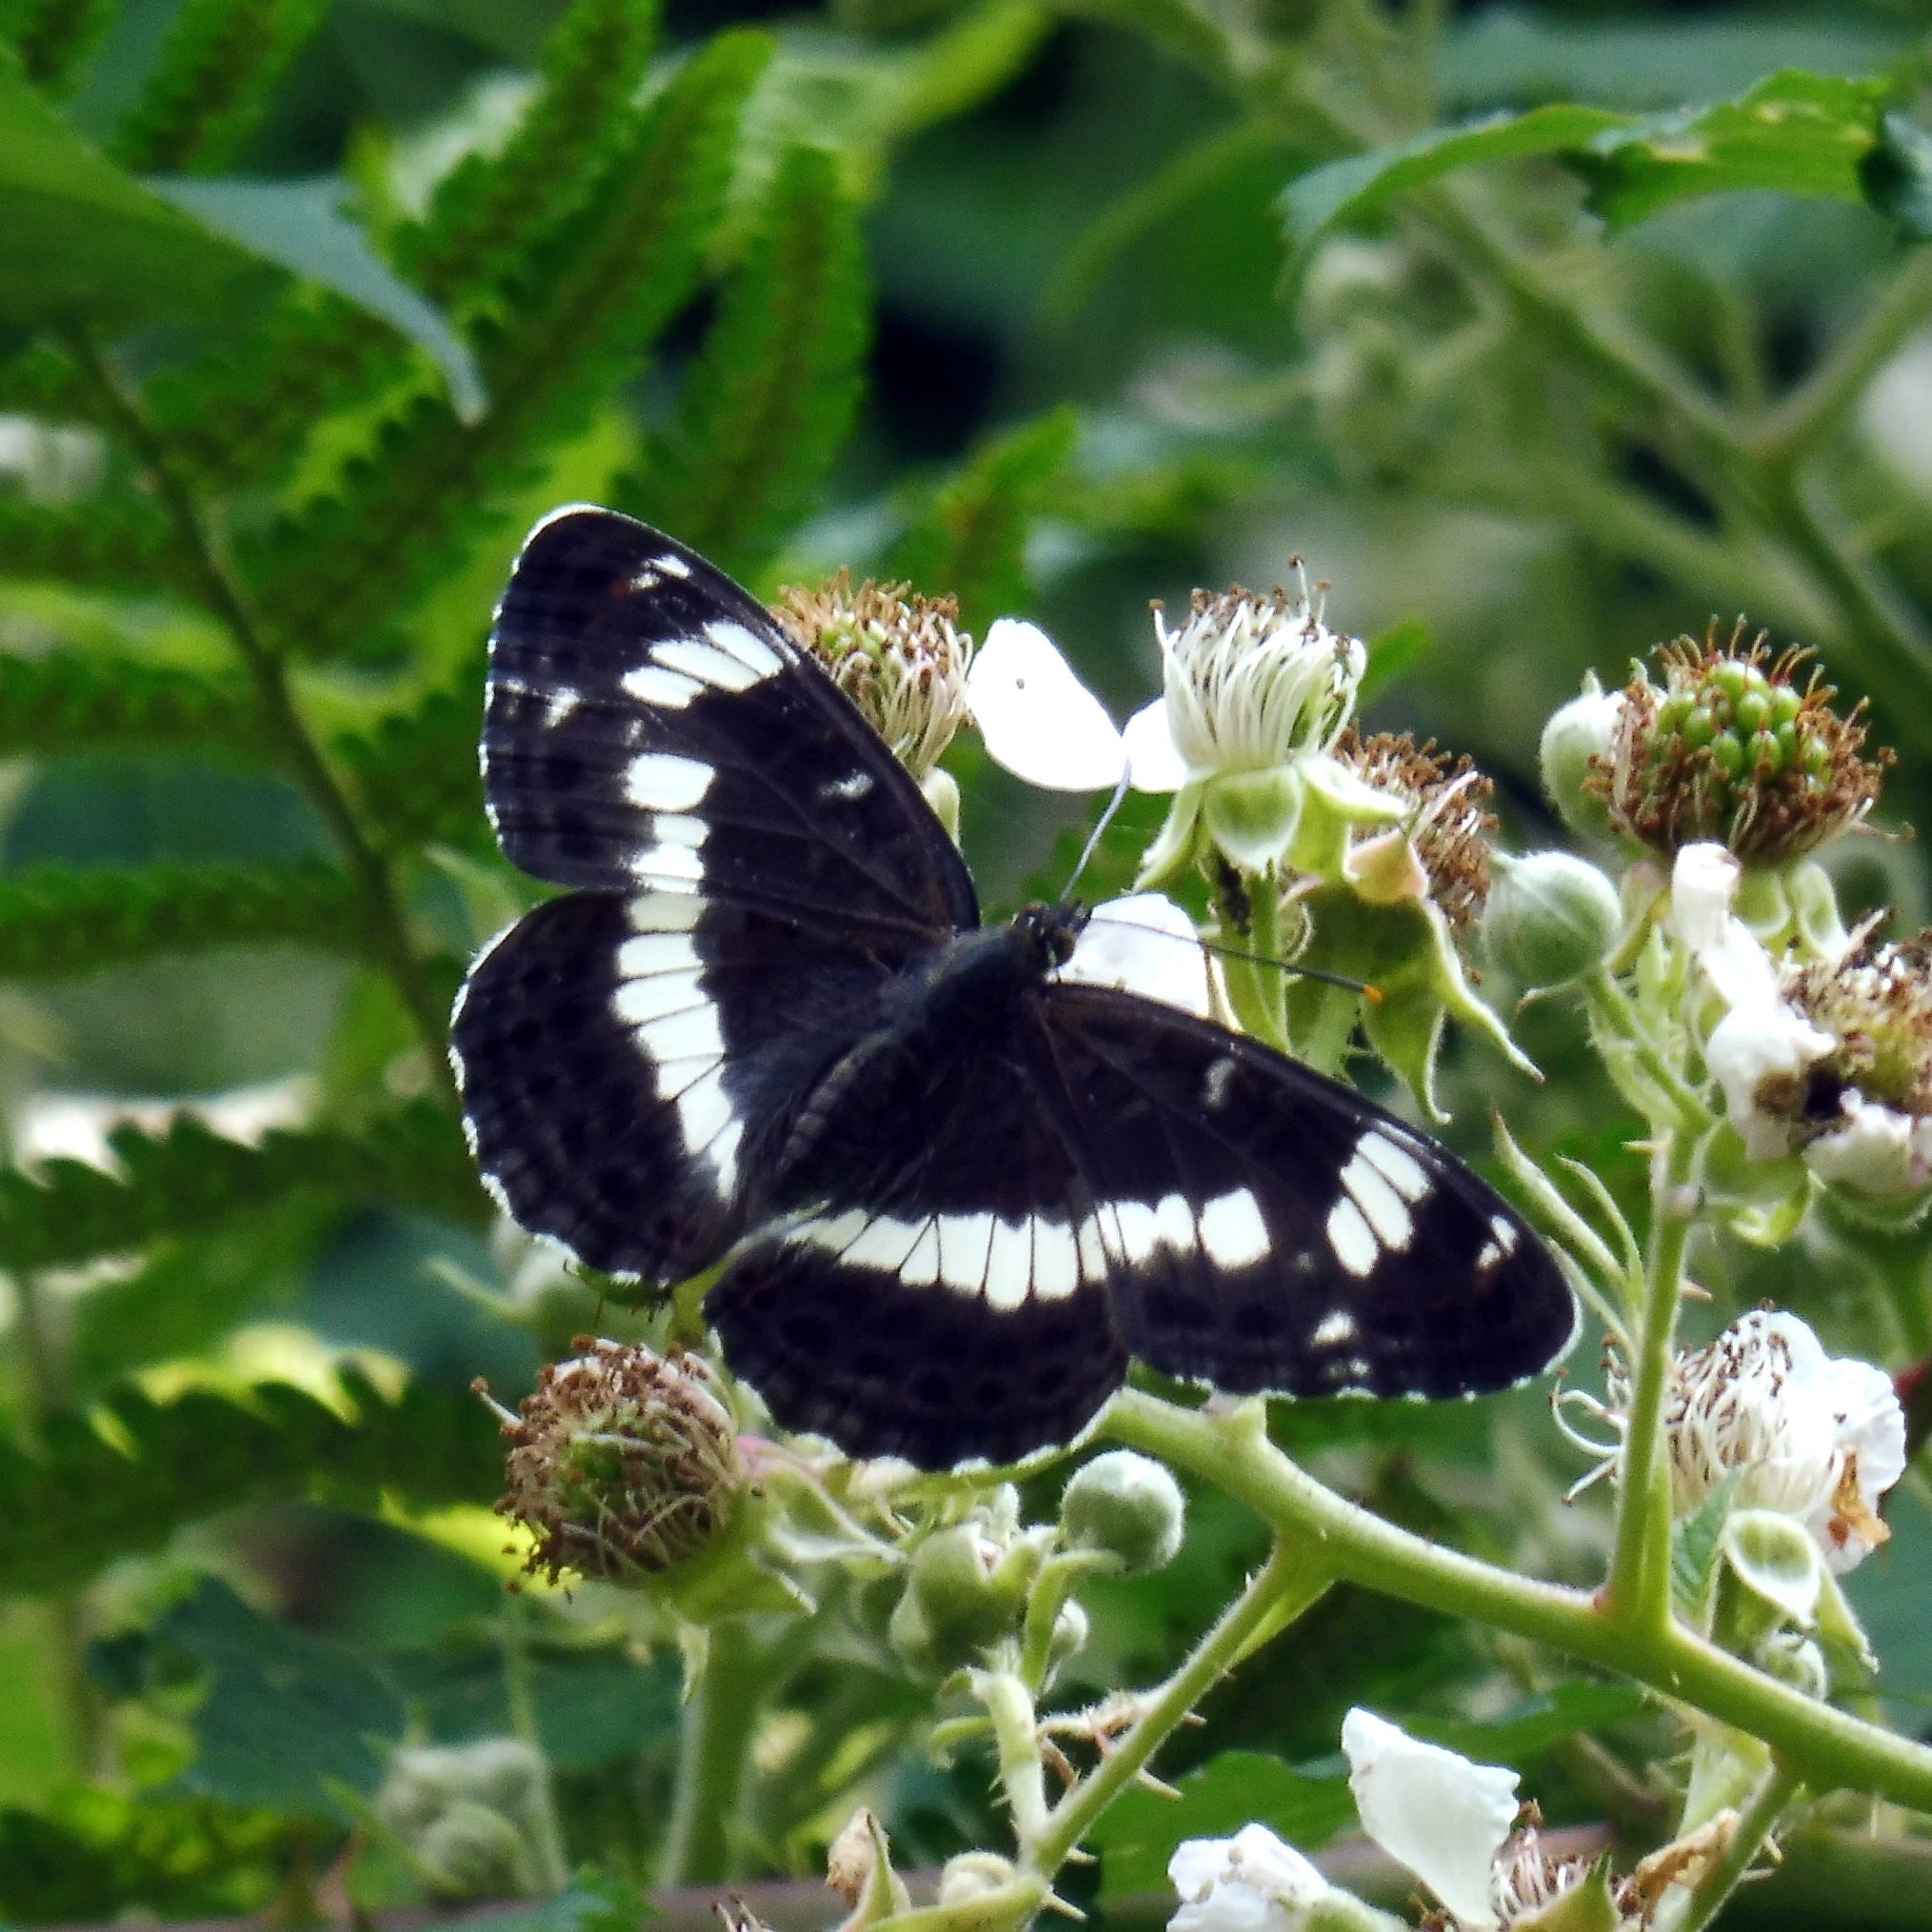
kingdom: Animalia
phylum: Arthropoda
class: Insecta
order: Lepidoptera
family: Nymphalidae
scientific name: Nymphalidae
